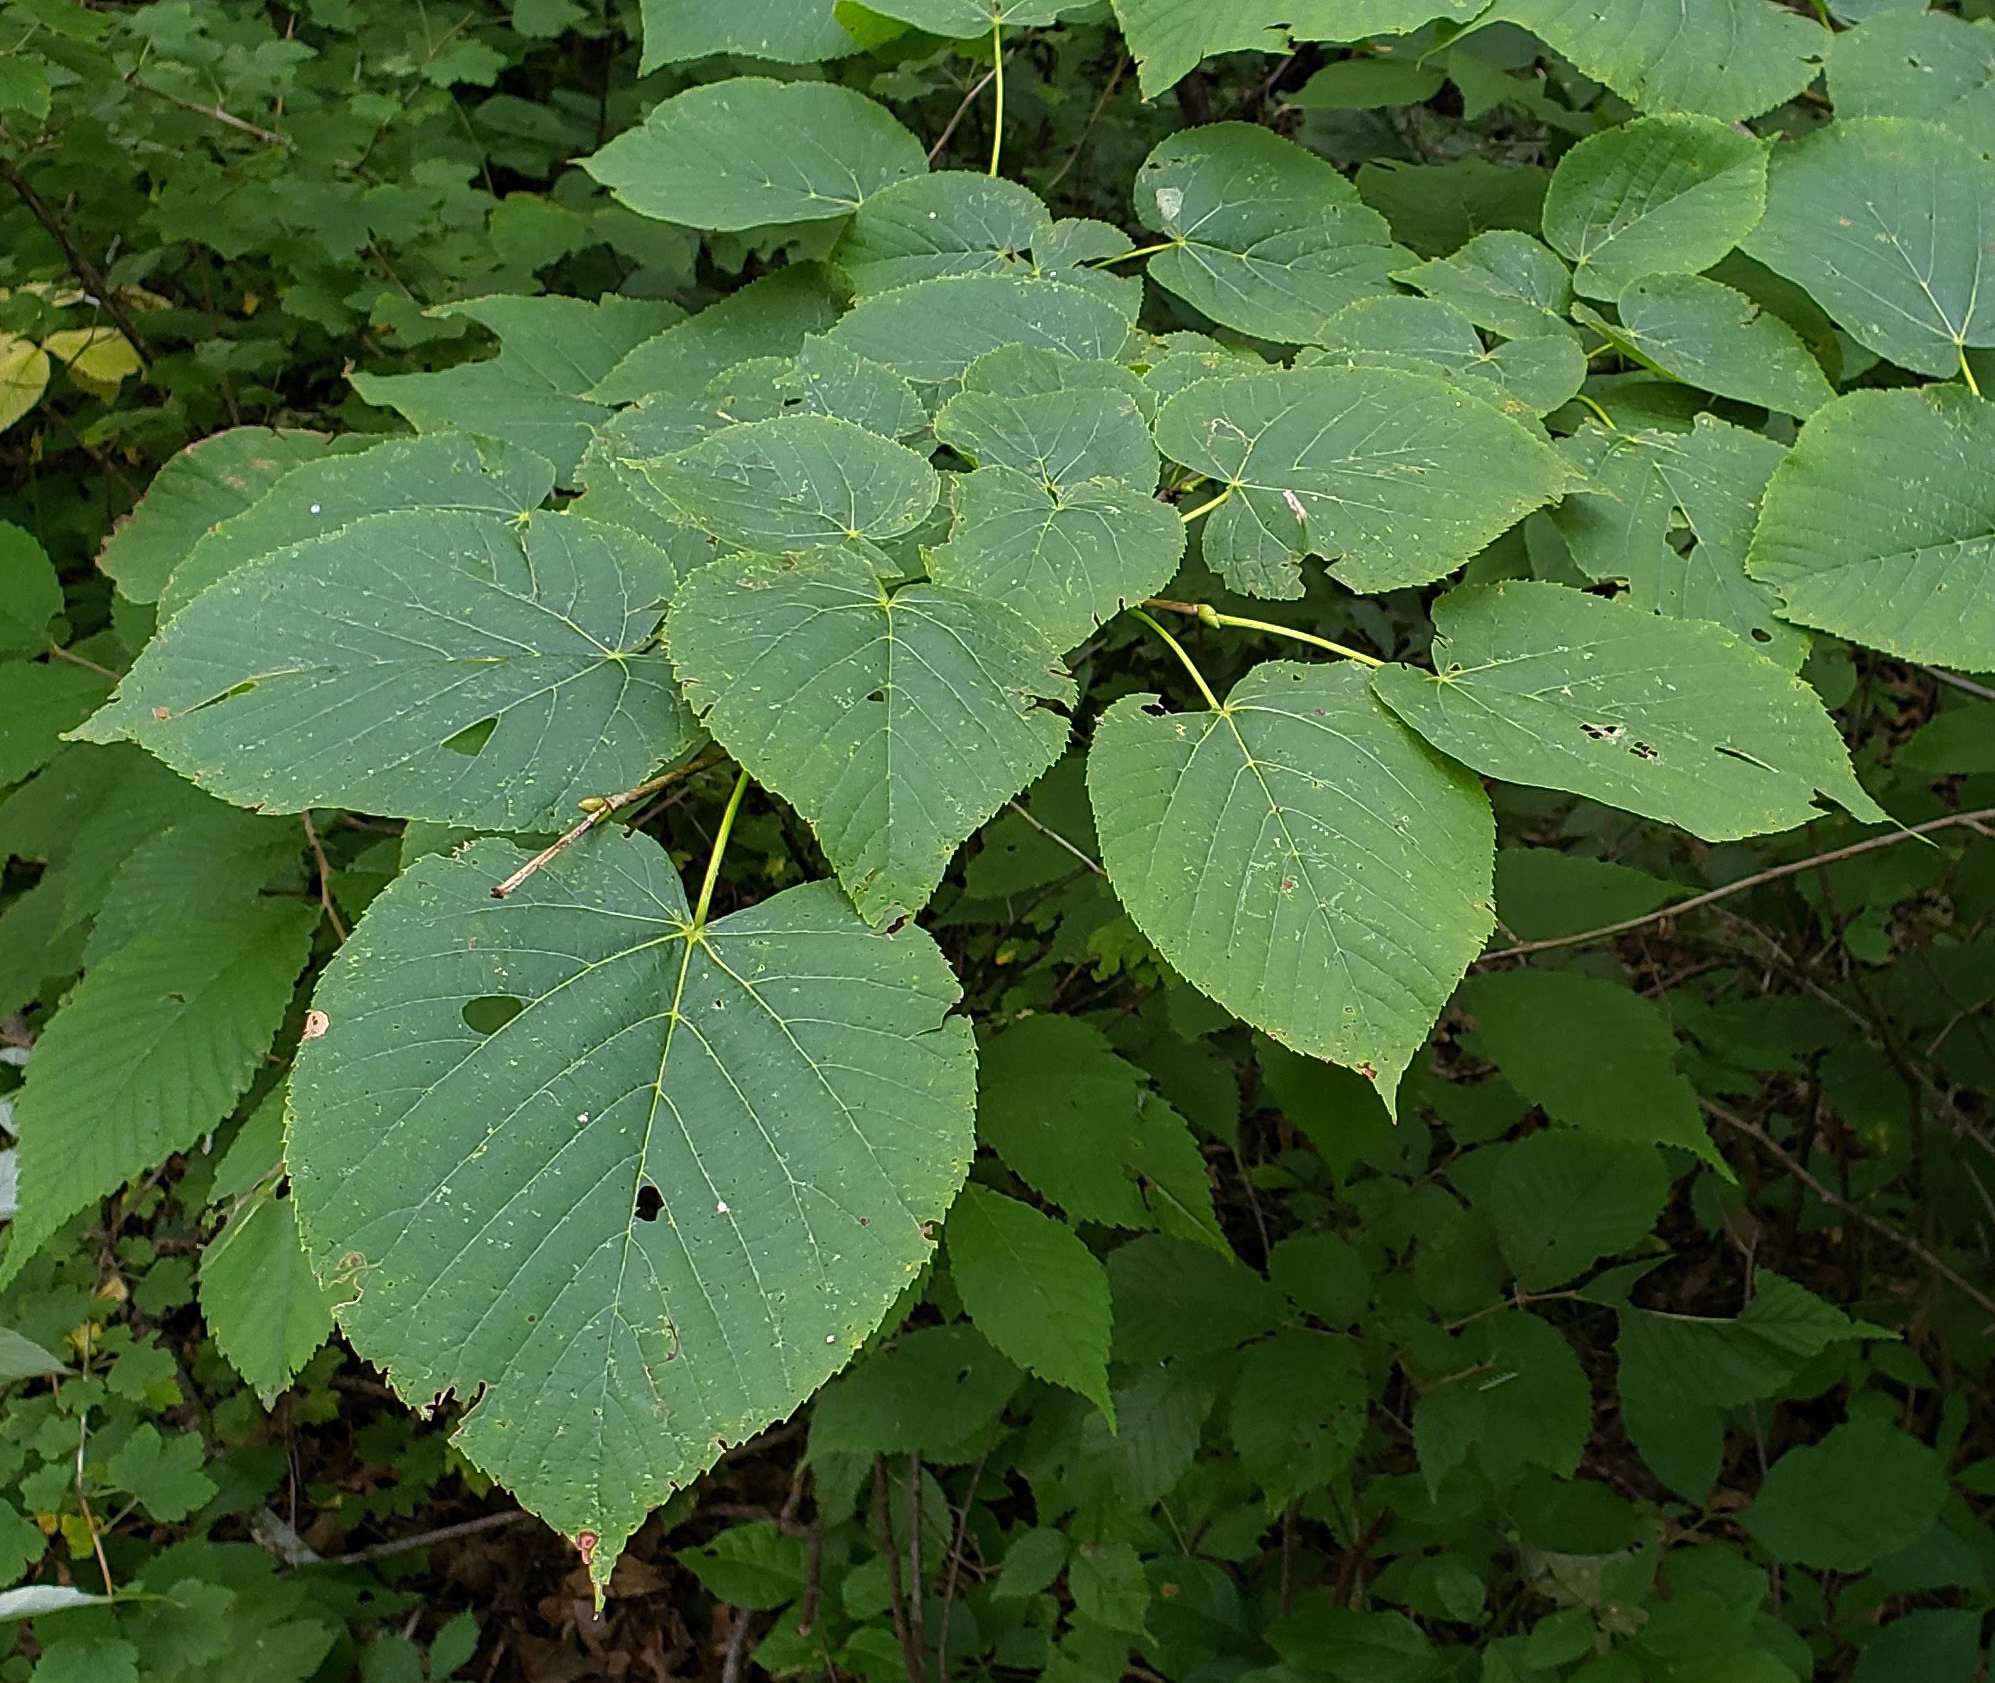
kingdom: Plantae
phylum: Tracheophyta
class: Magnoliopsida
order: Malvales
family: Malvaceae
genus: Tilia
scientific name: Tilia americana
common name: Basswood
